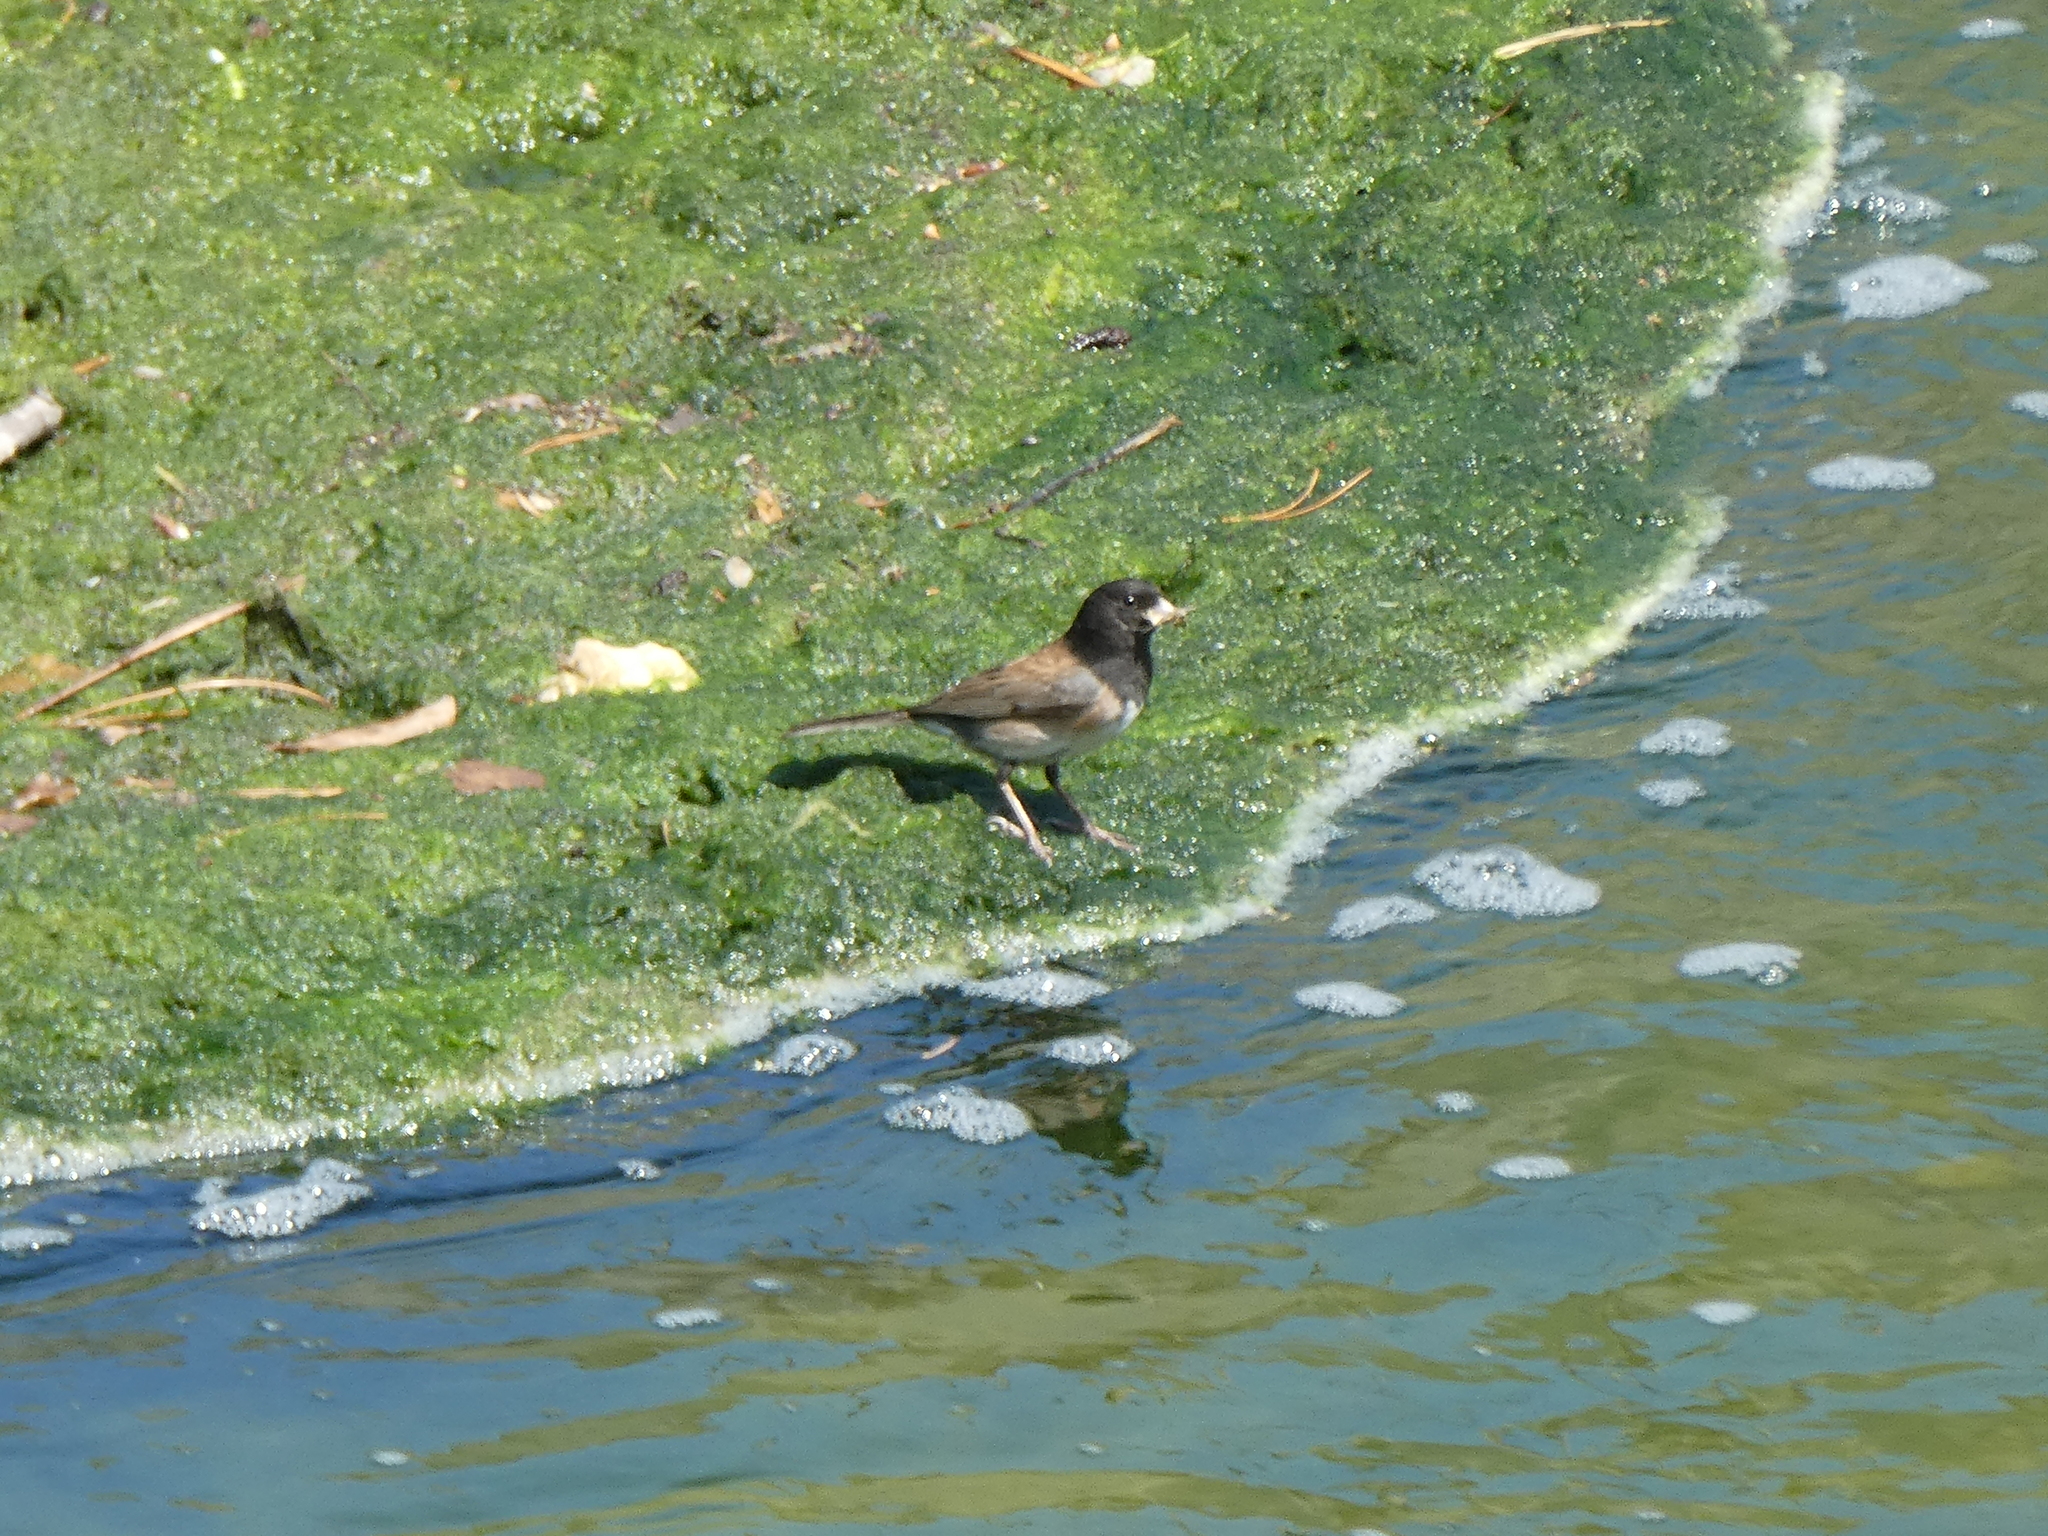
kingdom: Animalia
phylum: Chordata
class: Aves
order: Passeriformes
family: Passerellidae
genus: Junco
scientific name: Junco hyemalis
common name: Dark-eyed junco
